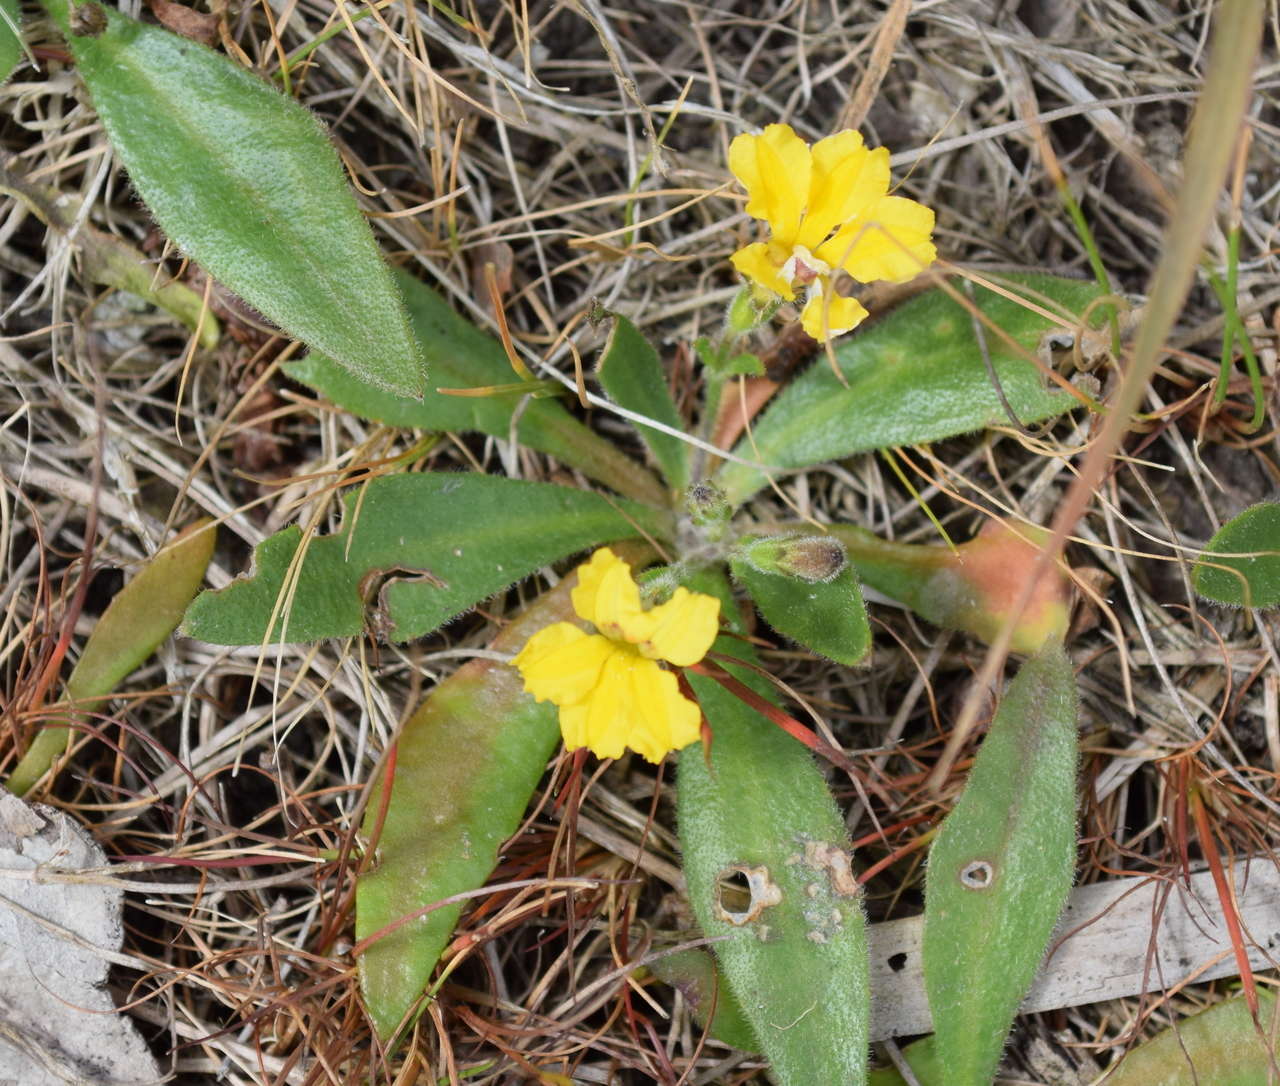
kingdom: Plantae
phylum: Tracheophyta
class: Magnoliopsida
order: Asterales
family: Goodeniaceae
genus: Goodenia
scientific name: Goodenia humilis
